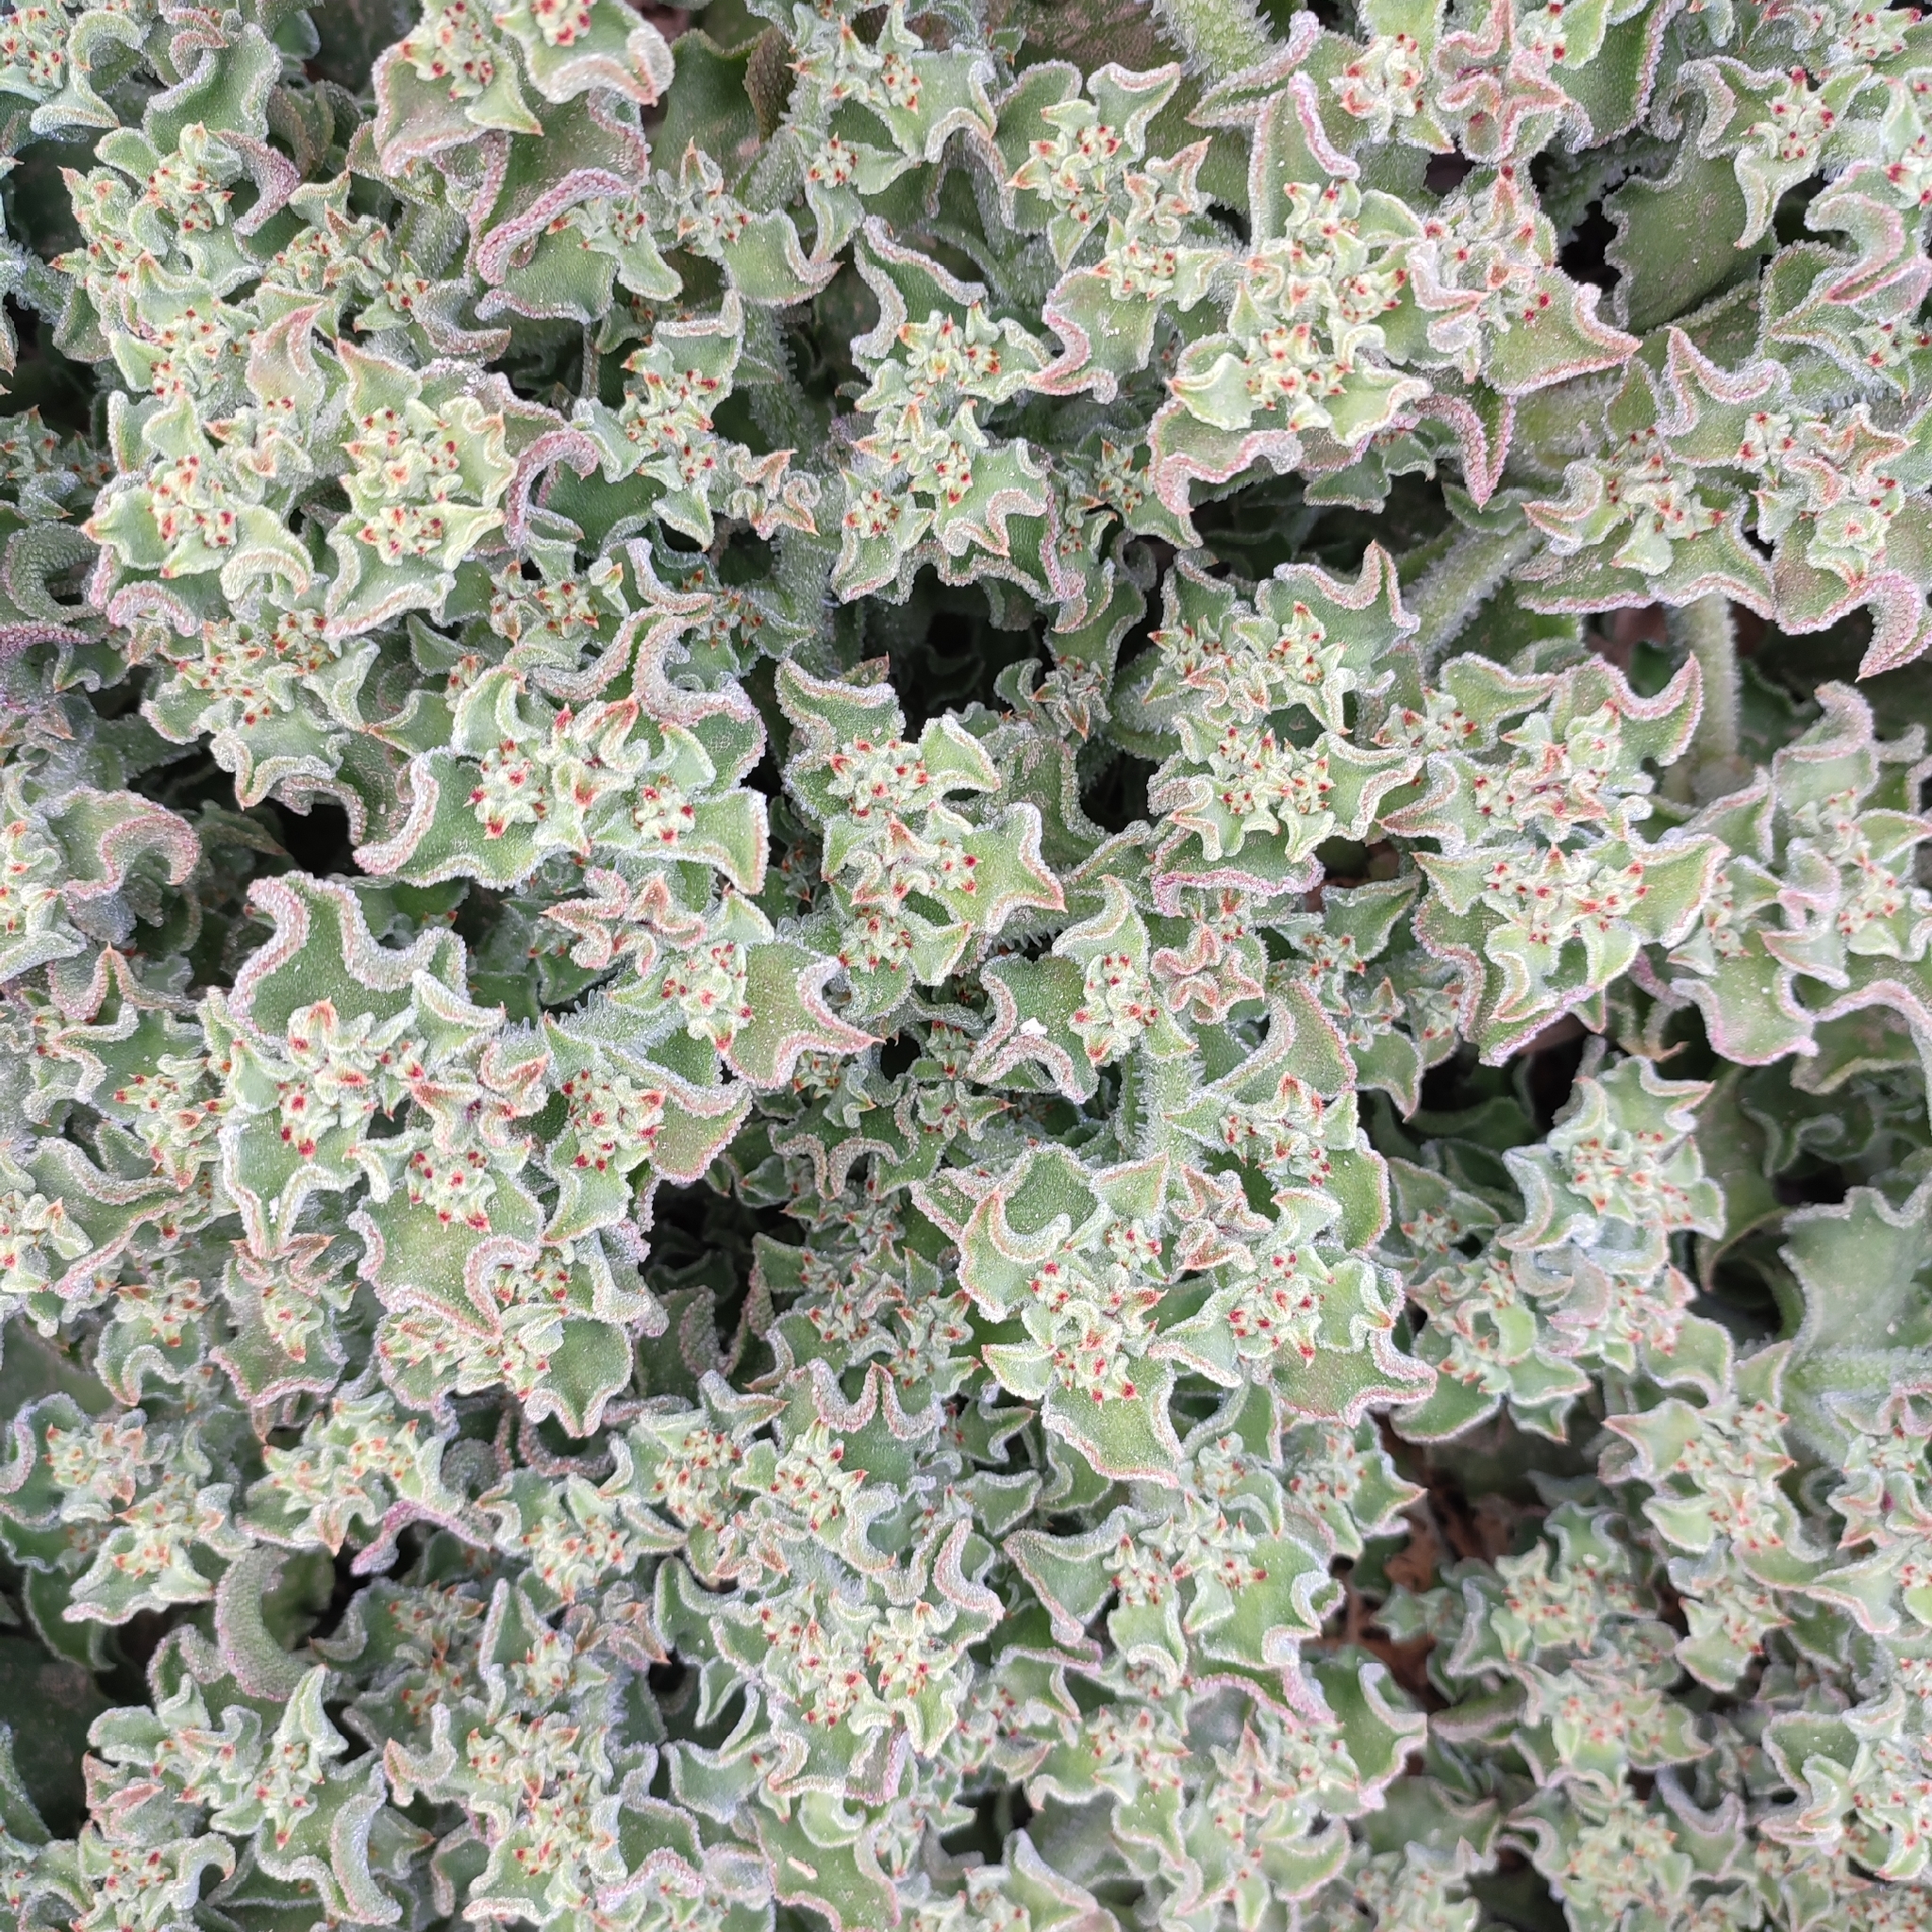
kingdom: Plantae
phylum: Tracheophyta
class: Magnoliopsida
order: Caryophyllales
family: Aizoaceae
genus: Mesembryanthemum
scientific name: Mesembryanthemum crystallinum
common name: Common iceplant
